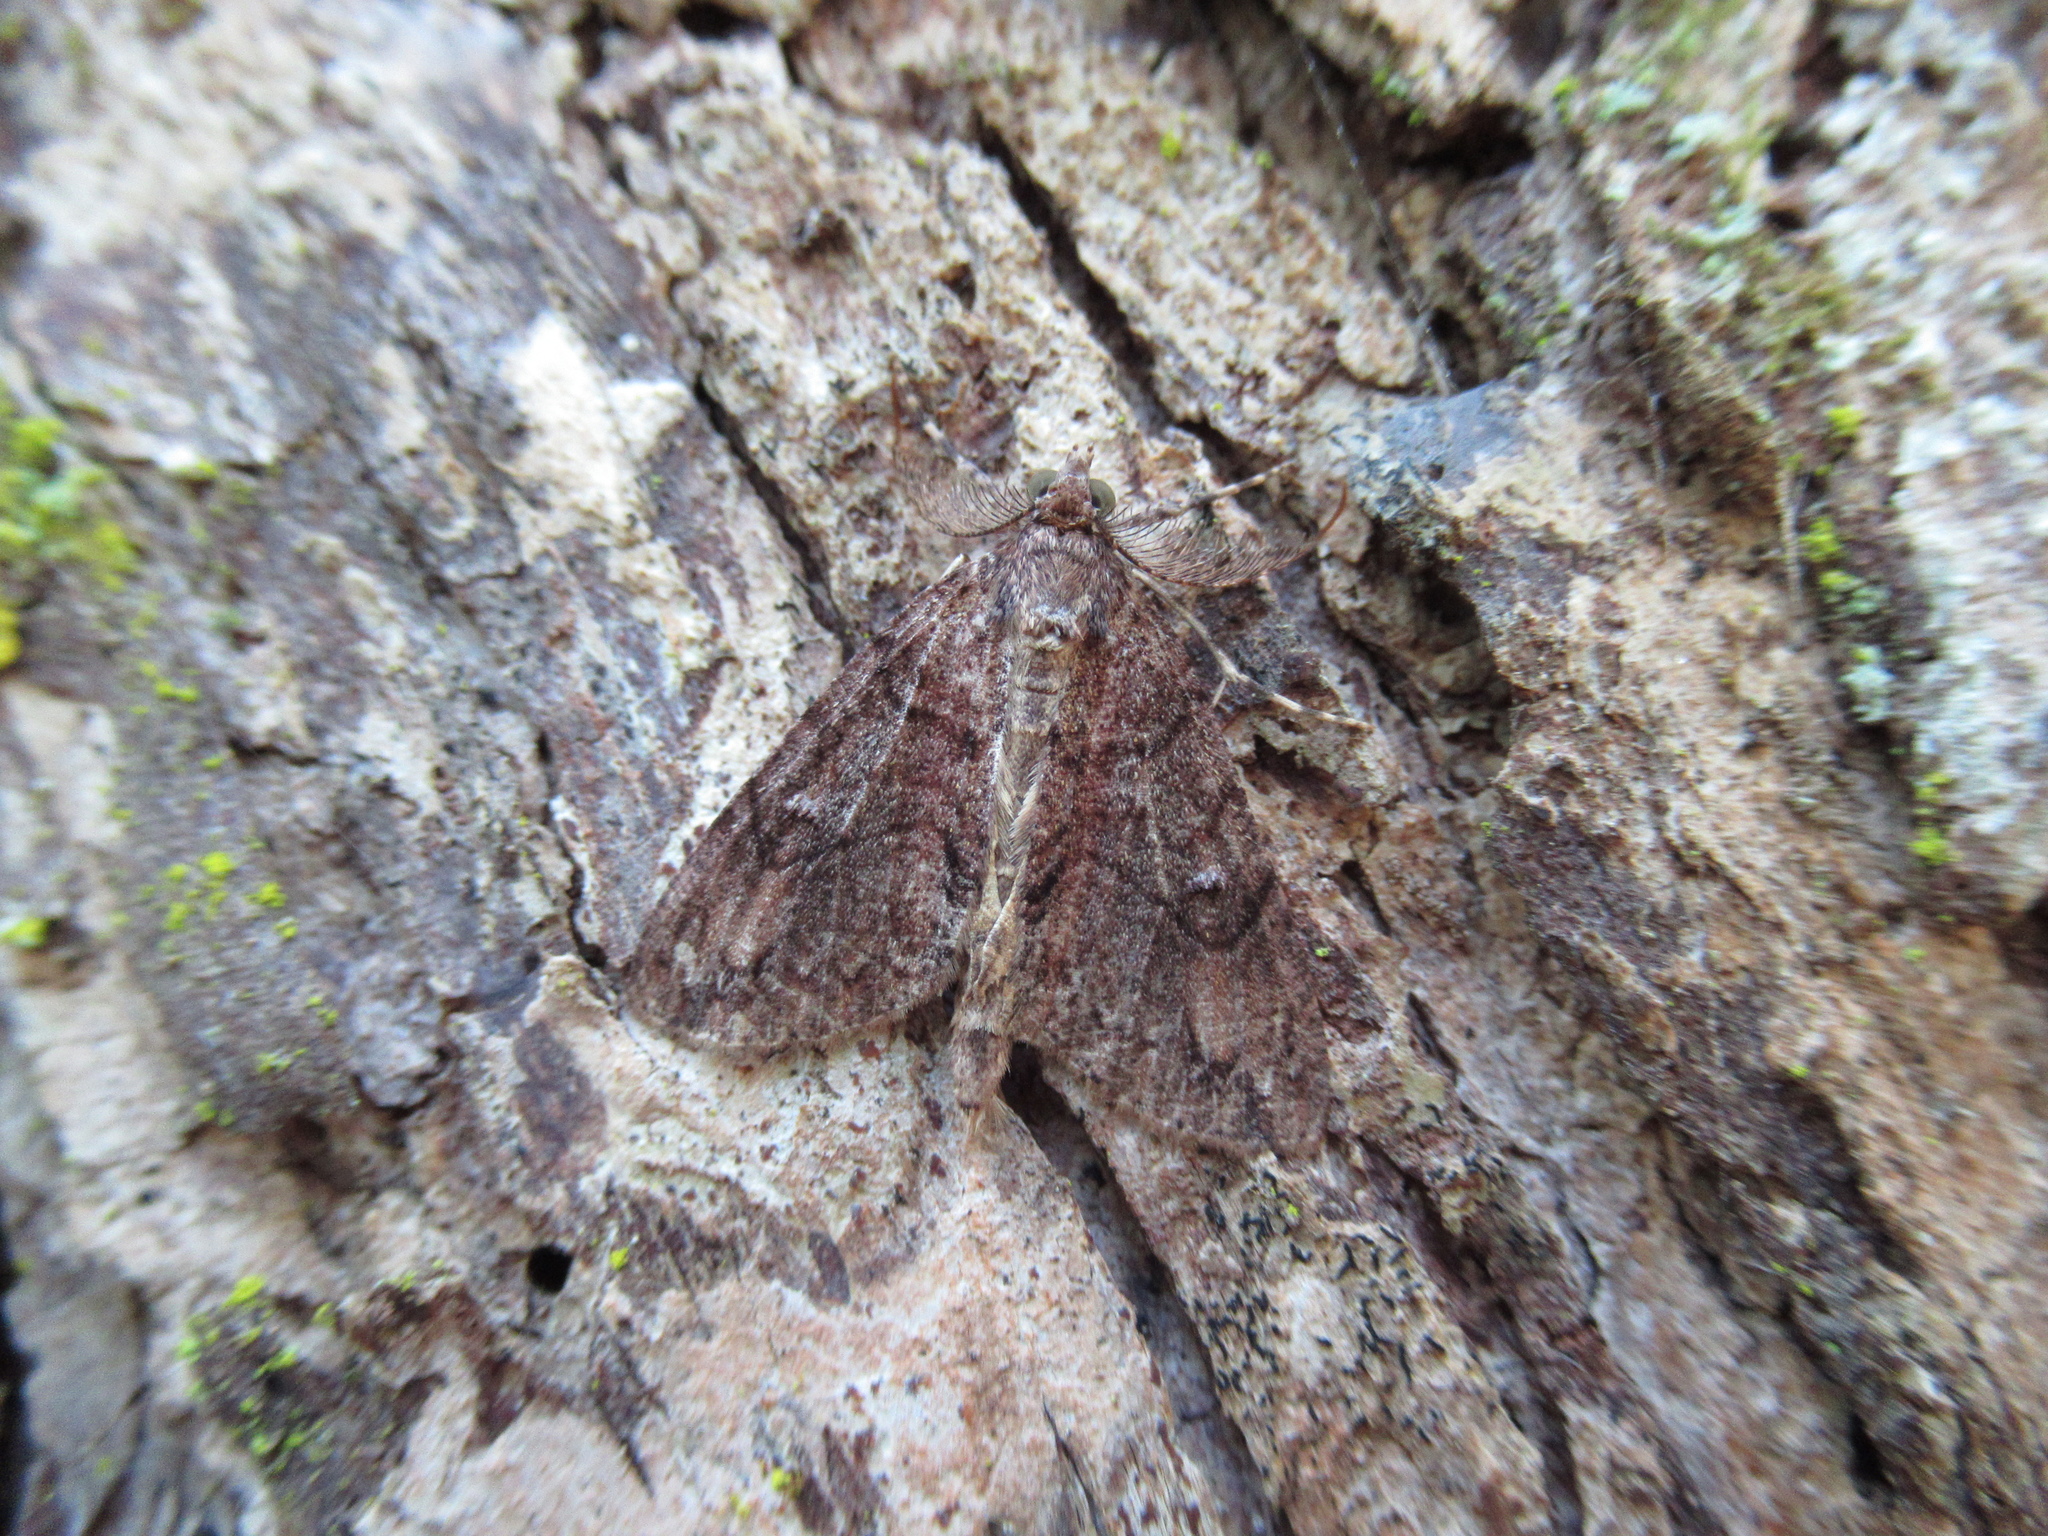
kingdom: Animalia
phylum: Arthropoda
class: Insecta
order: Lepidoptera
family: Geometridae
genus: Pseudocoremia
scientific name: Pseudocoremia suavis
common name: Common forest looper
